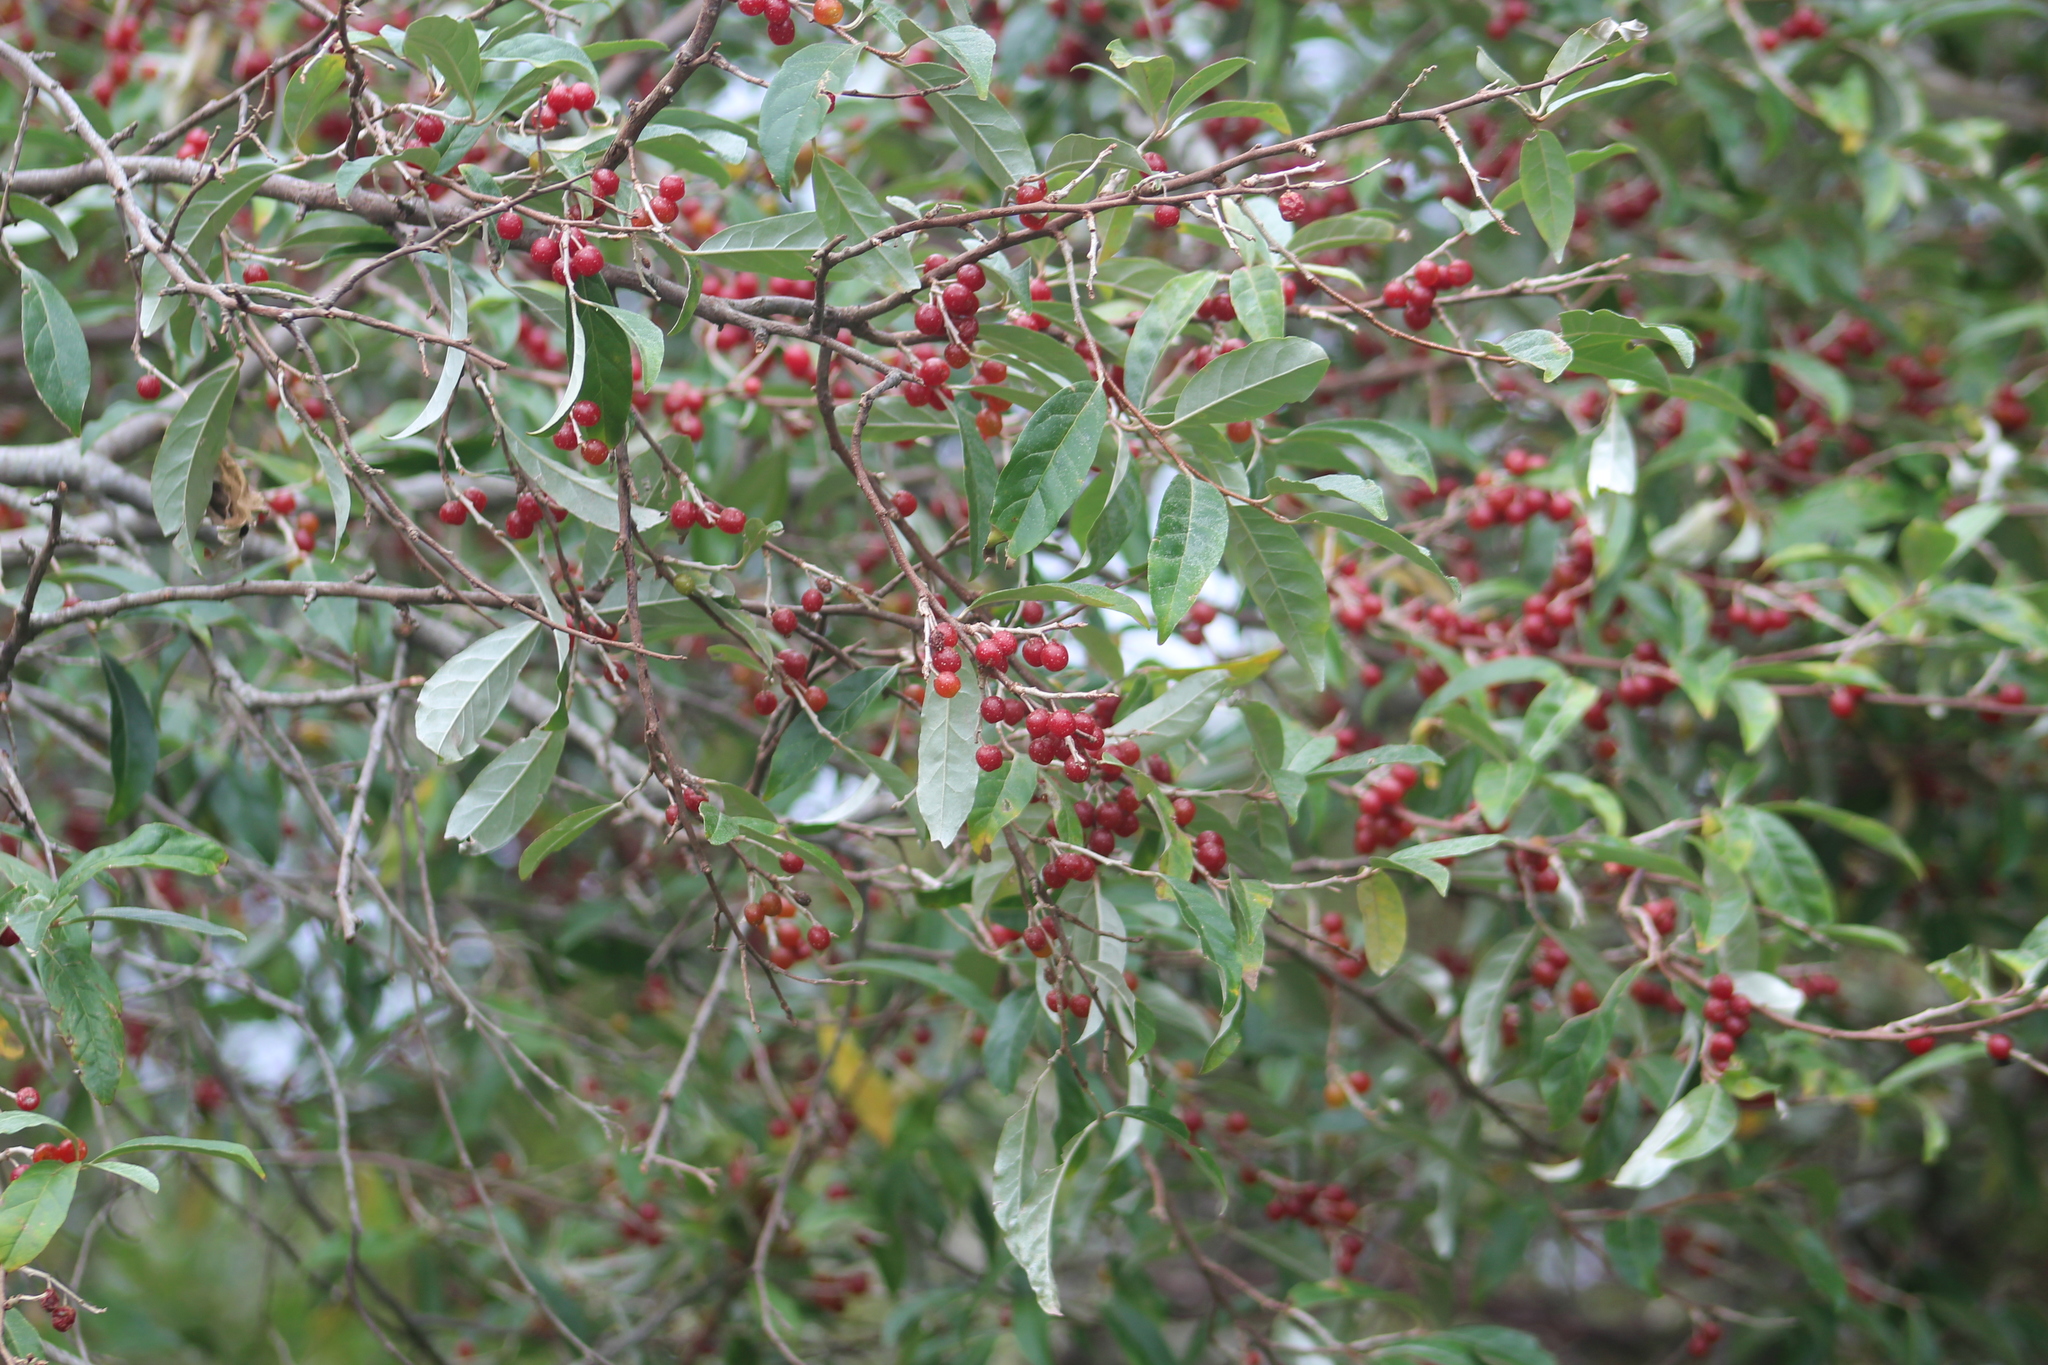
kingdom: Plantae
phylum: Tracheophyta
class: Magnoliopsida
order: Rosales
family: Elaeagnaceae
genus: Elaeagnus
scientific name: Elaeagnus umbellata
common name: Autumn olive
